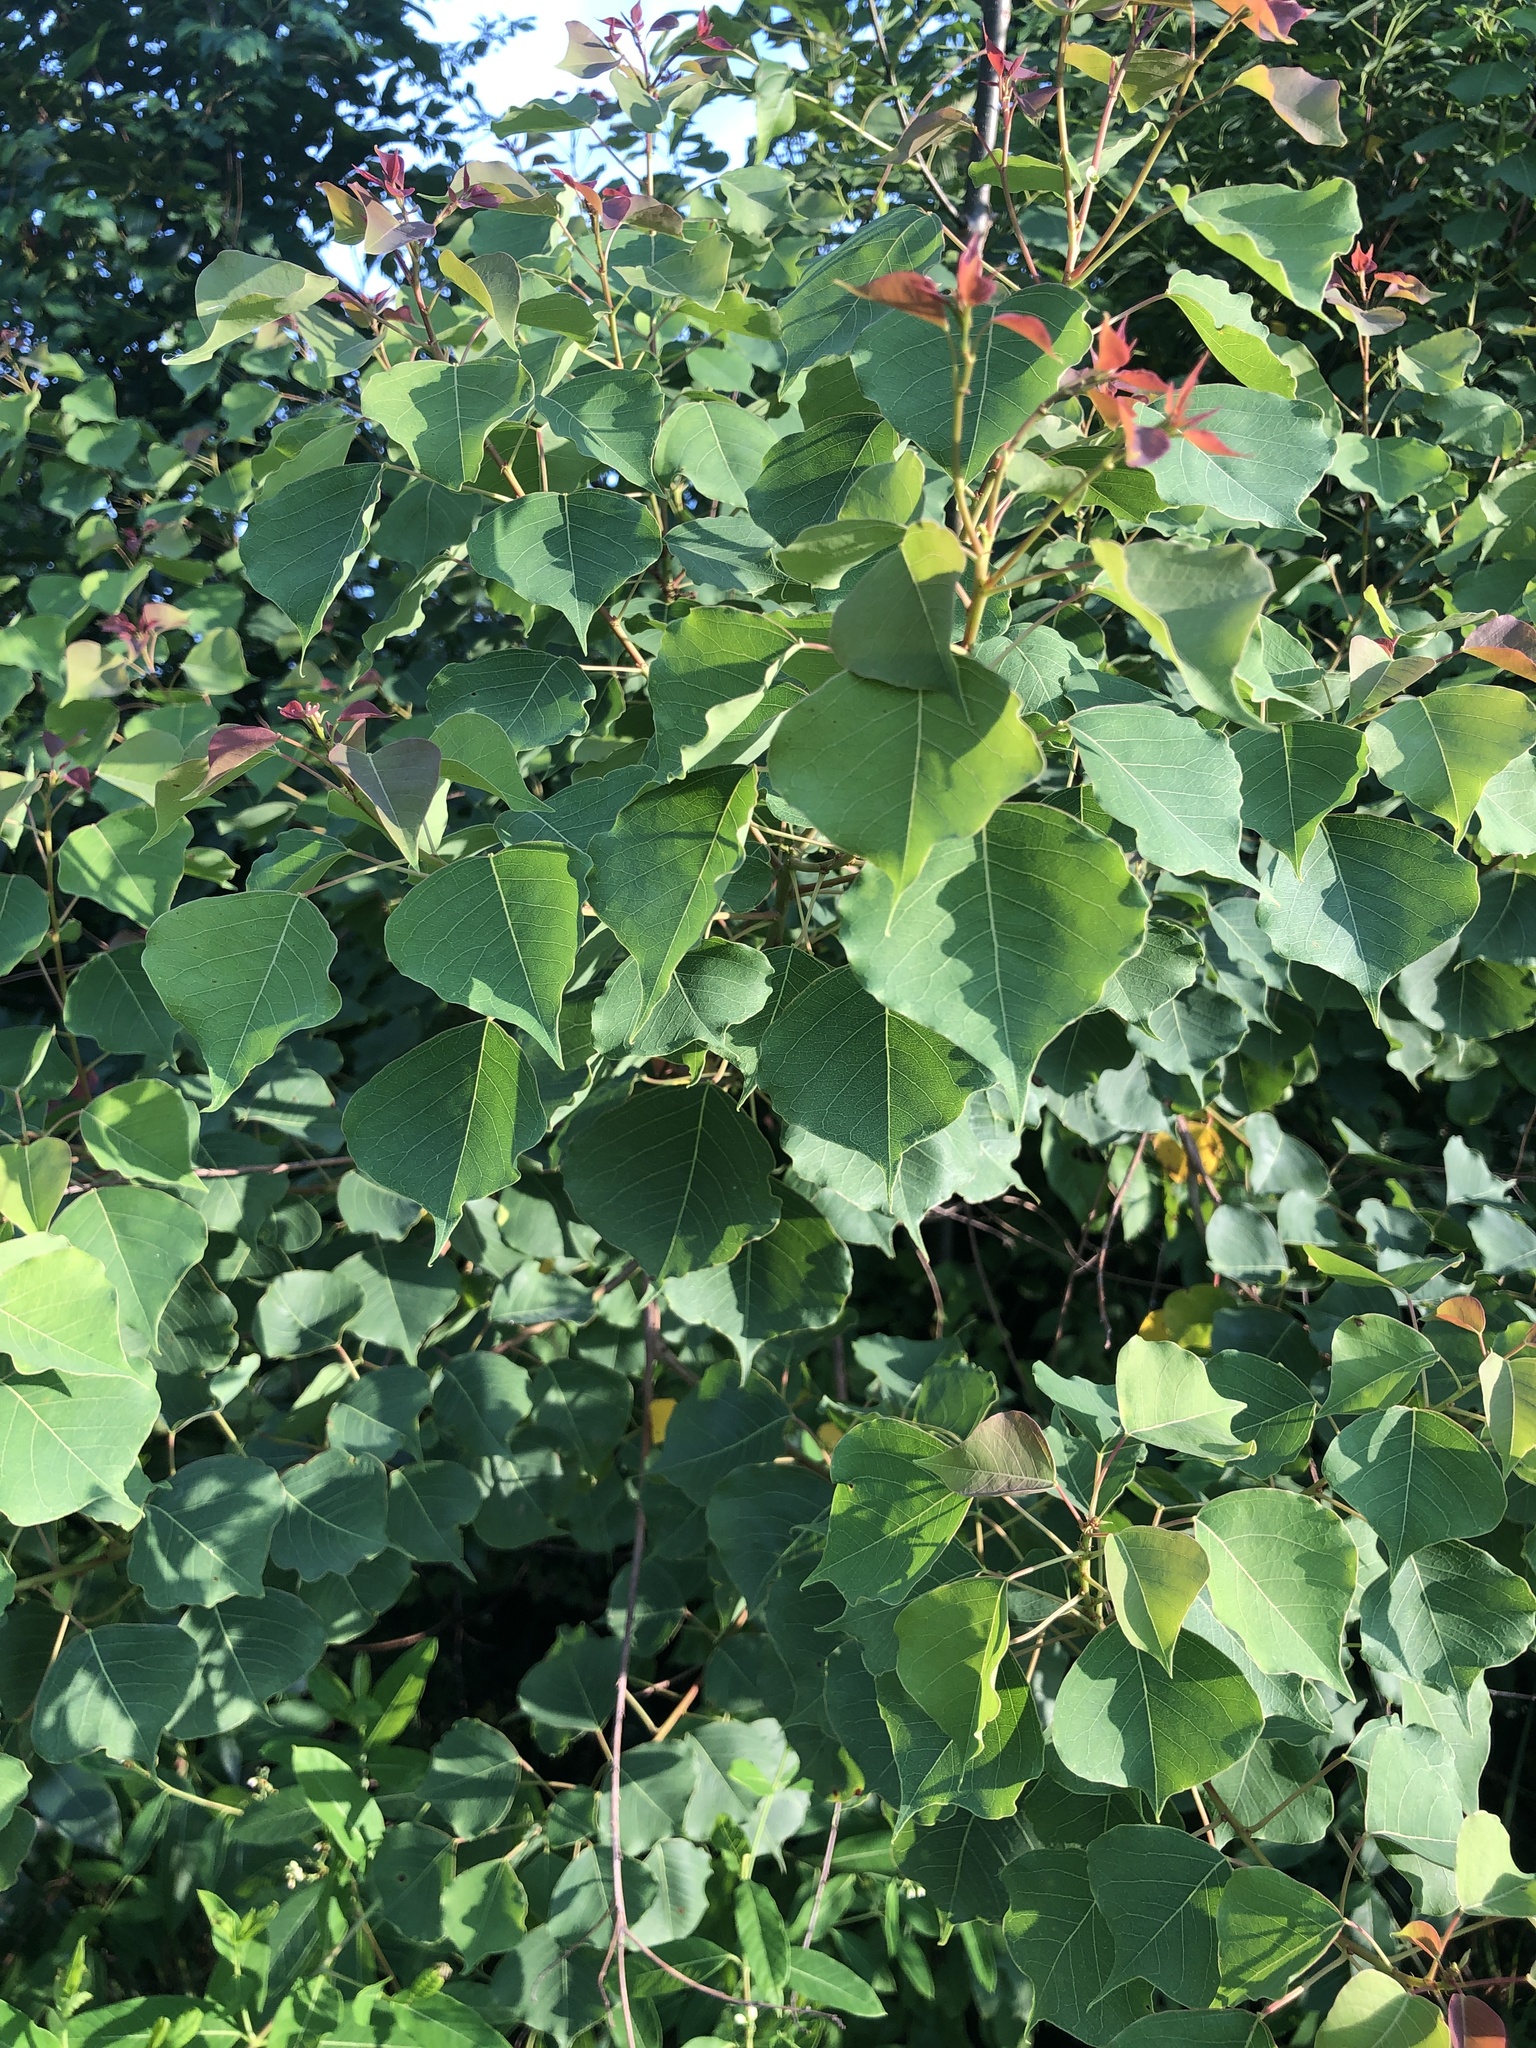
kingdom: Plantae
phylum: Tracheophyta
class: Magnoliopsida
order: Malpighiales
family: Euphorbiaceae
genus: Triadica
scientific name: Triadica sebifera
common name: Chinese tallow
